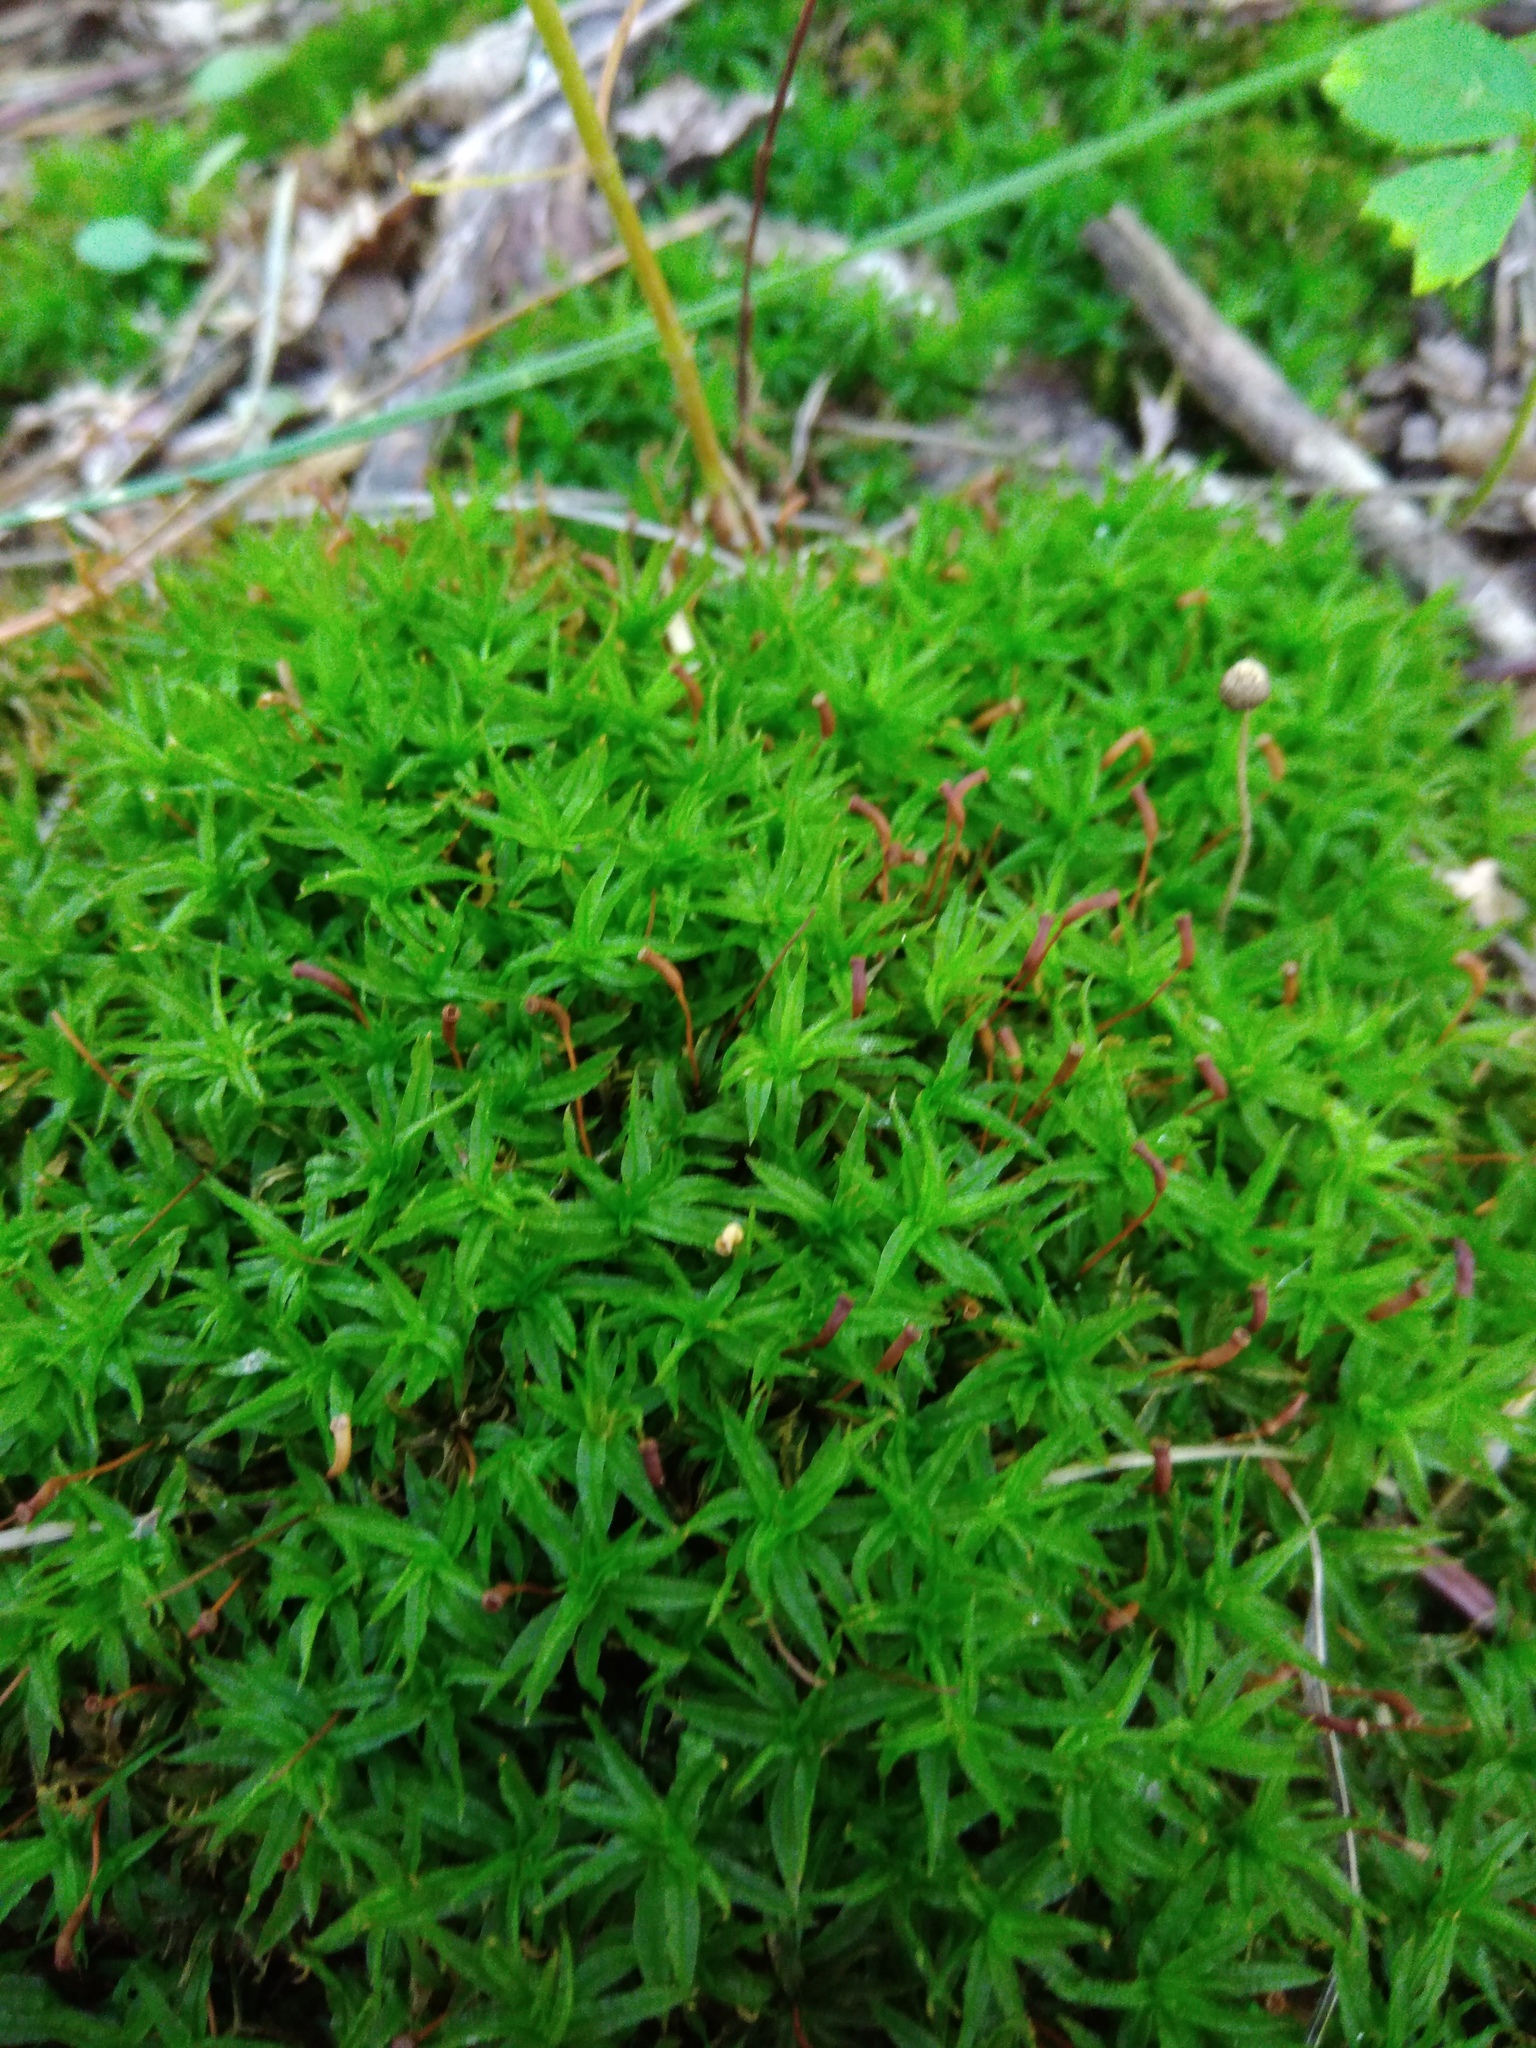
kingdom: Plantae
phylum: Bryophyta
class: Polytrichopsida
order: Polytrichales
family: Polytrichaceae
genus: Atrichum
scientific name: Atrichum undulatum
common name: Common smoothcap
